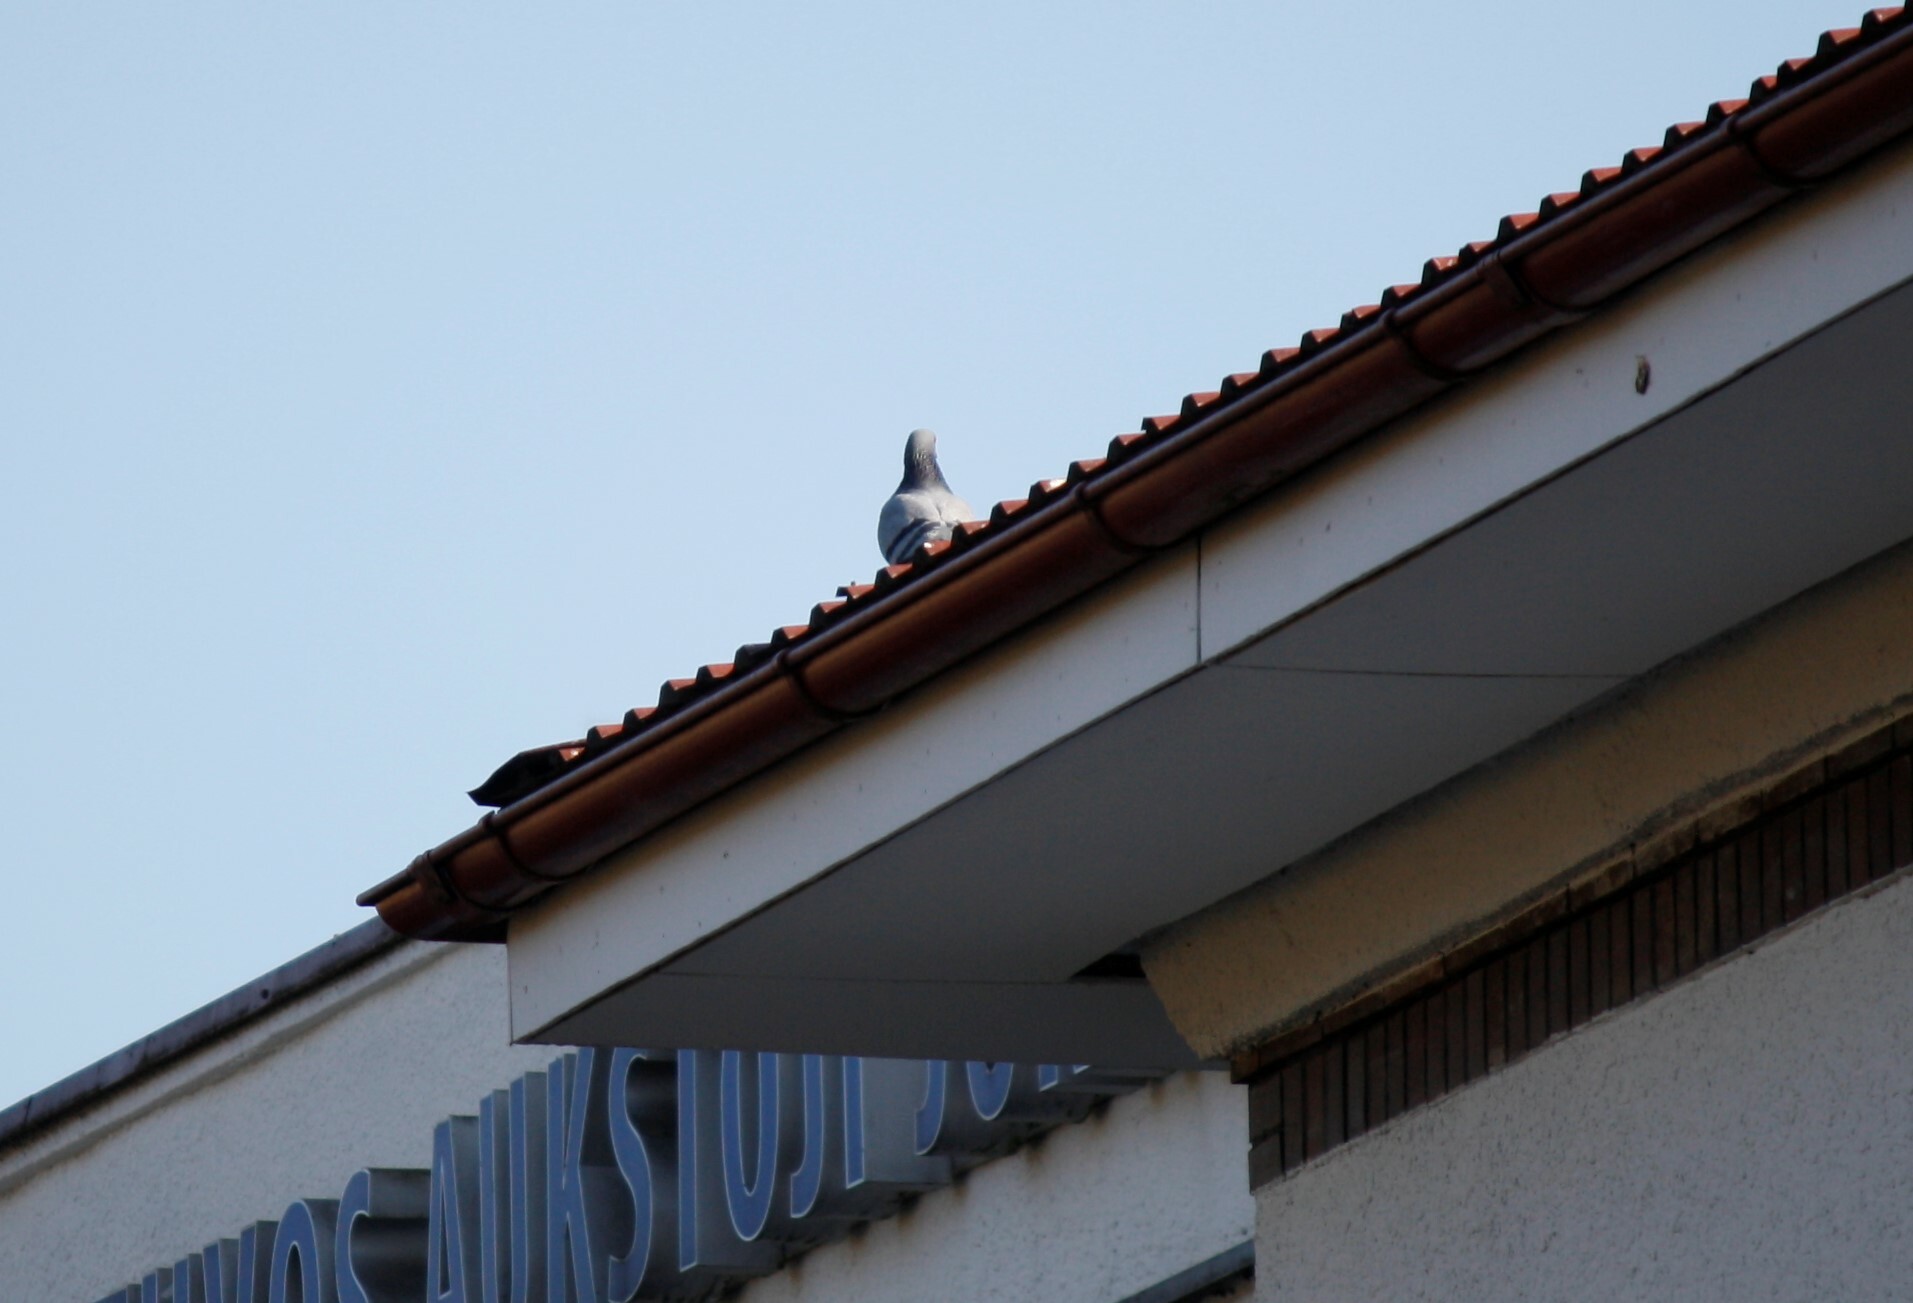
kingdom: Animalia
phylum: Chordata
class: Aves
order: Columbiformes
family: Columbidae
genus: Columba
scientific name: Columba livia
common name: Rock pigeon
